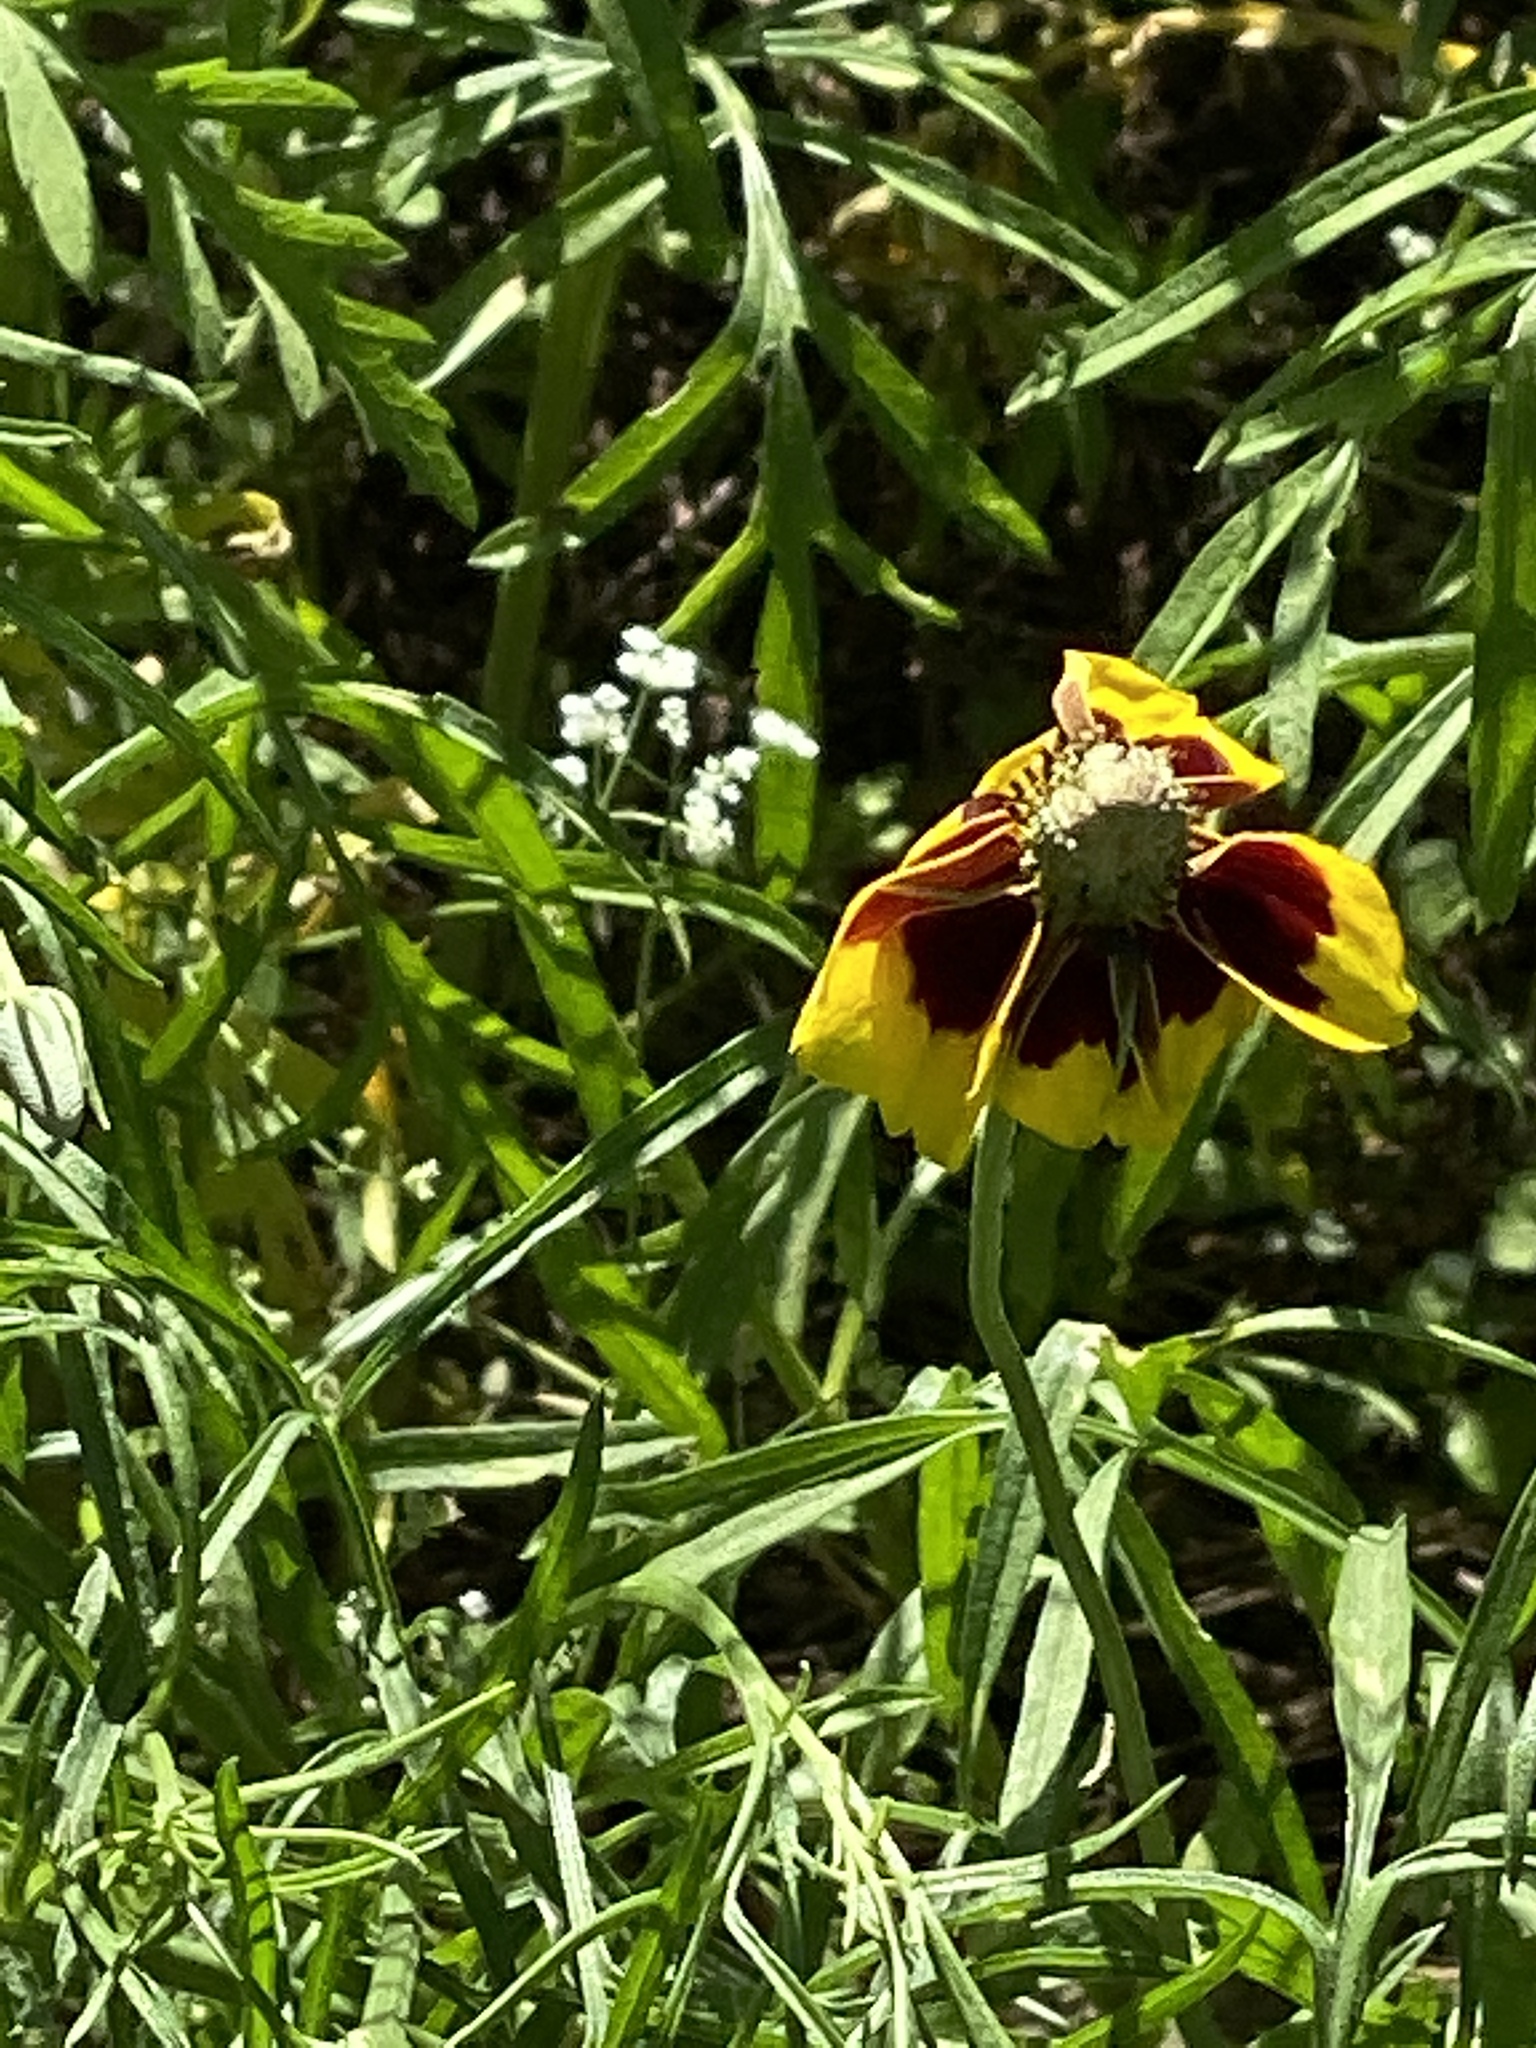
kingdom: Plantae
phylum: Tracheophyta
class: Magnoliopsida
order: Asterales
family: Asteraceae
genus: Ratibida
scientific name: Ratibida columnifera
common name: Prairie coneflower
